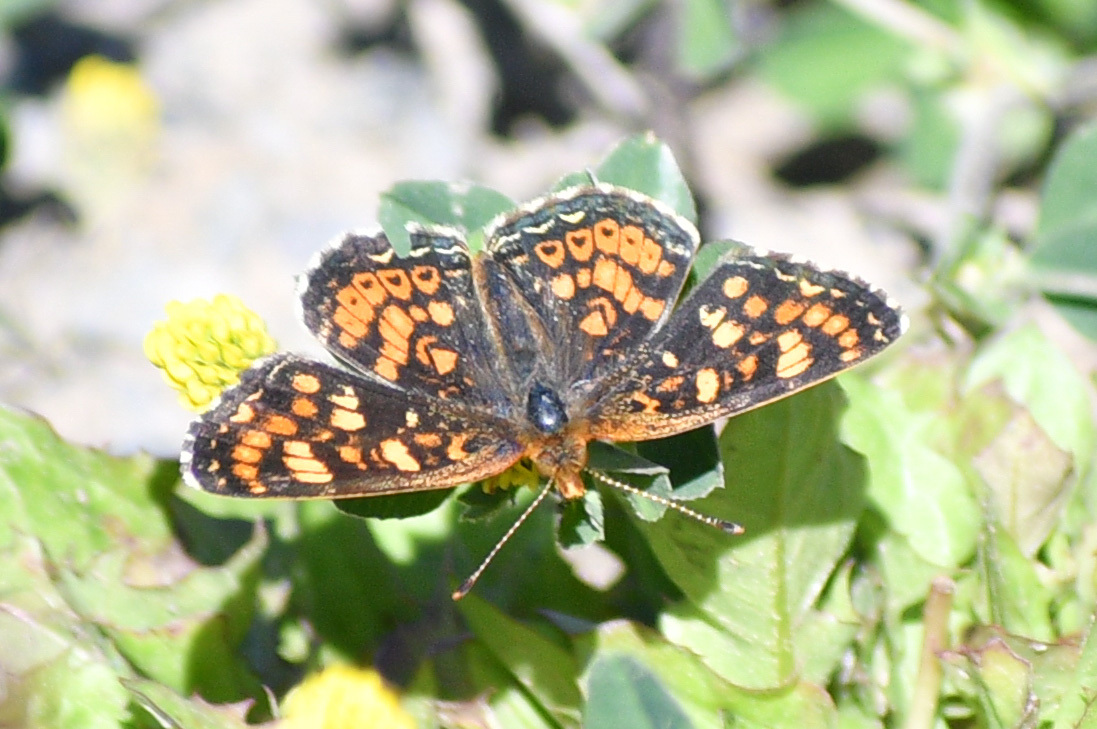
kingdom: Animalia
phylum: Arthropoda
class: Insecta
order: Lepidoptera
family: Nymphalidae
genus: Phyciodes
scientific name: Phyciodes tharos
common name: Pearl crescent
